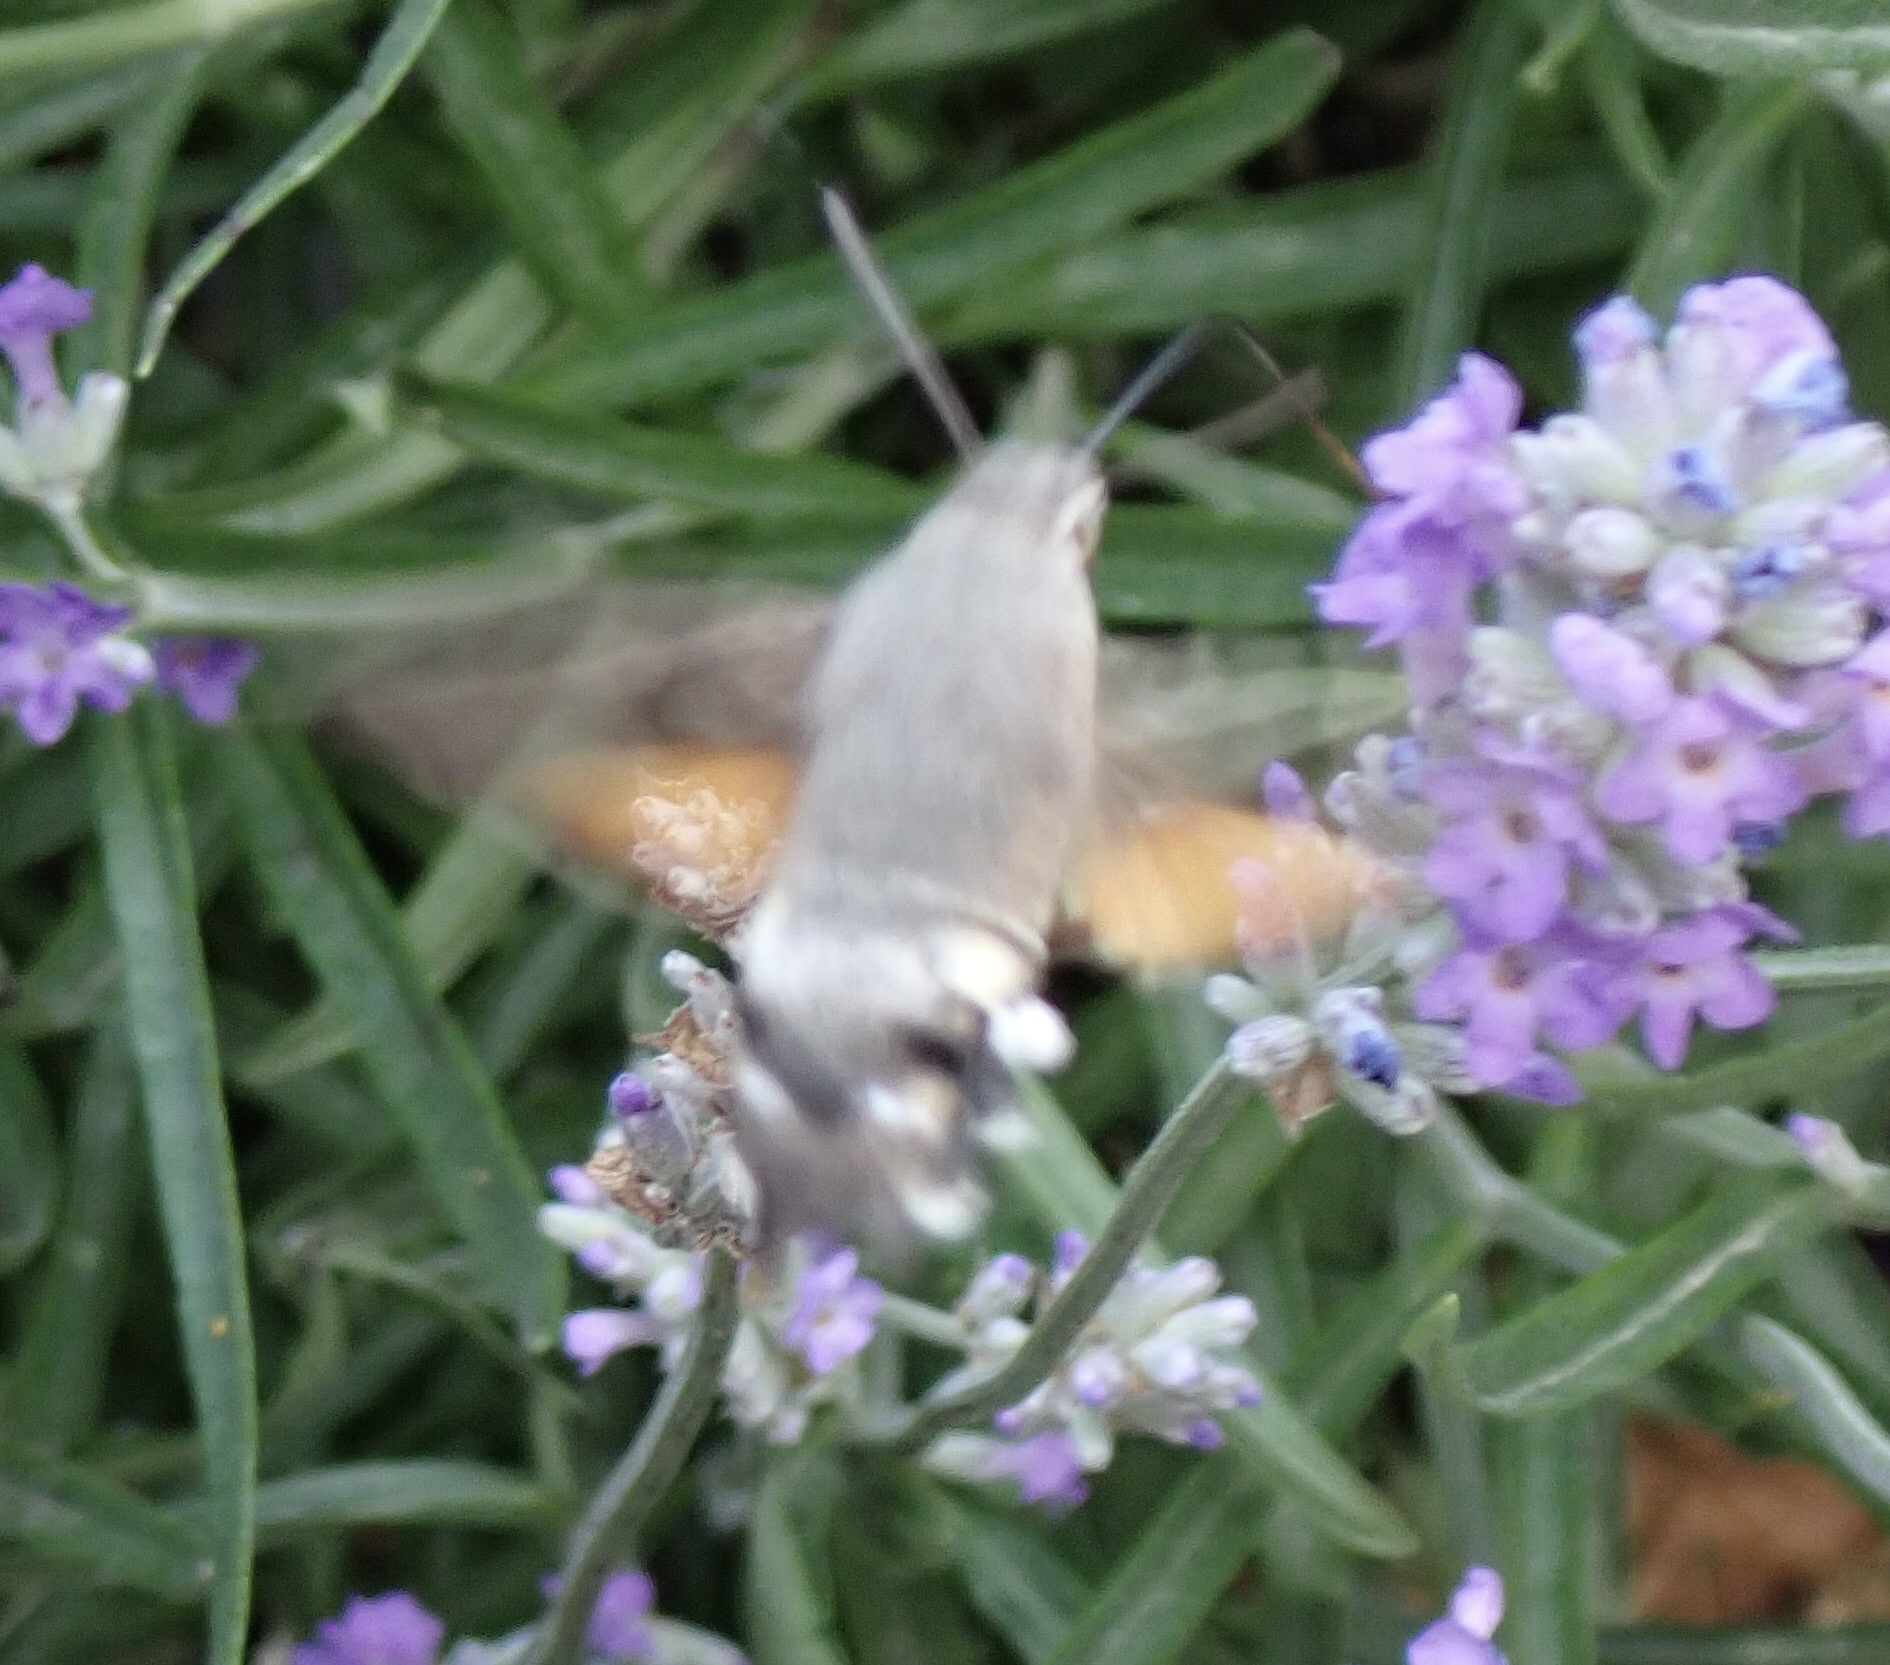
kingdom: Animalia
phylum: Arthropoda
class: Insecta
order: Lepidoptera
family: Sphingidae
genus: Macroglossum
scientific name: Macroglossum stellatarum
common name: Humming-bird hawk-moth
